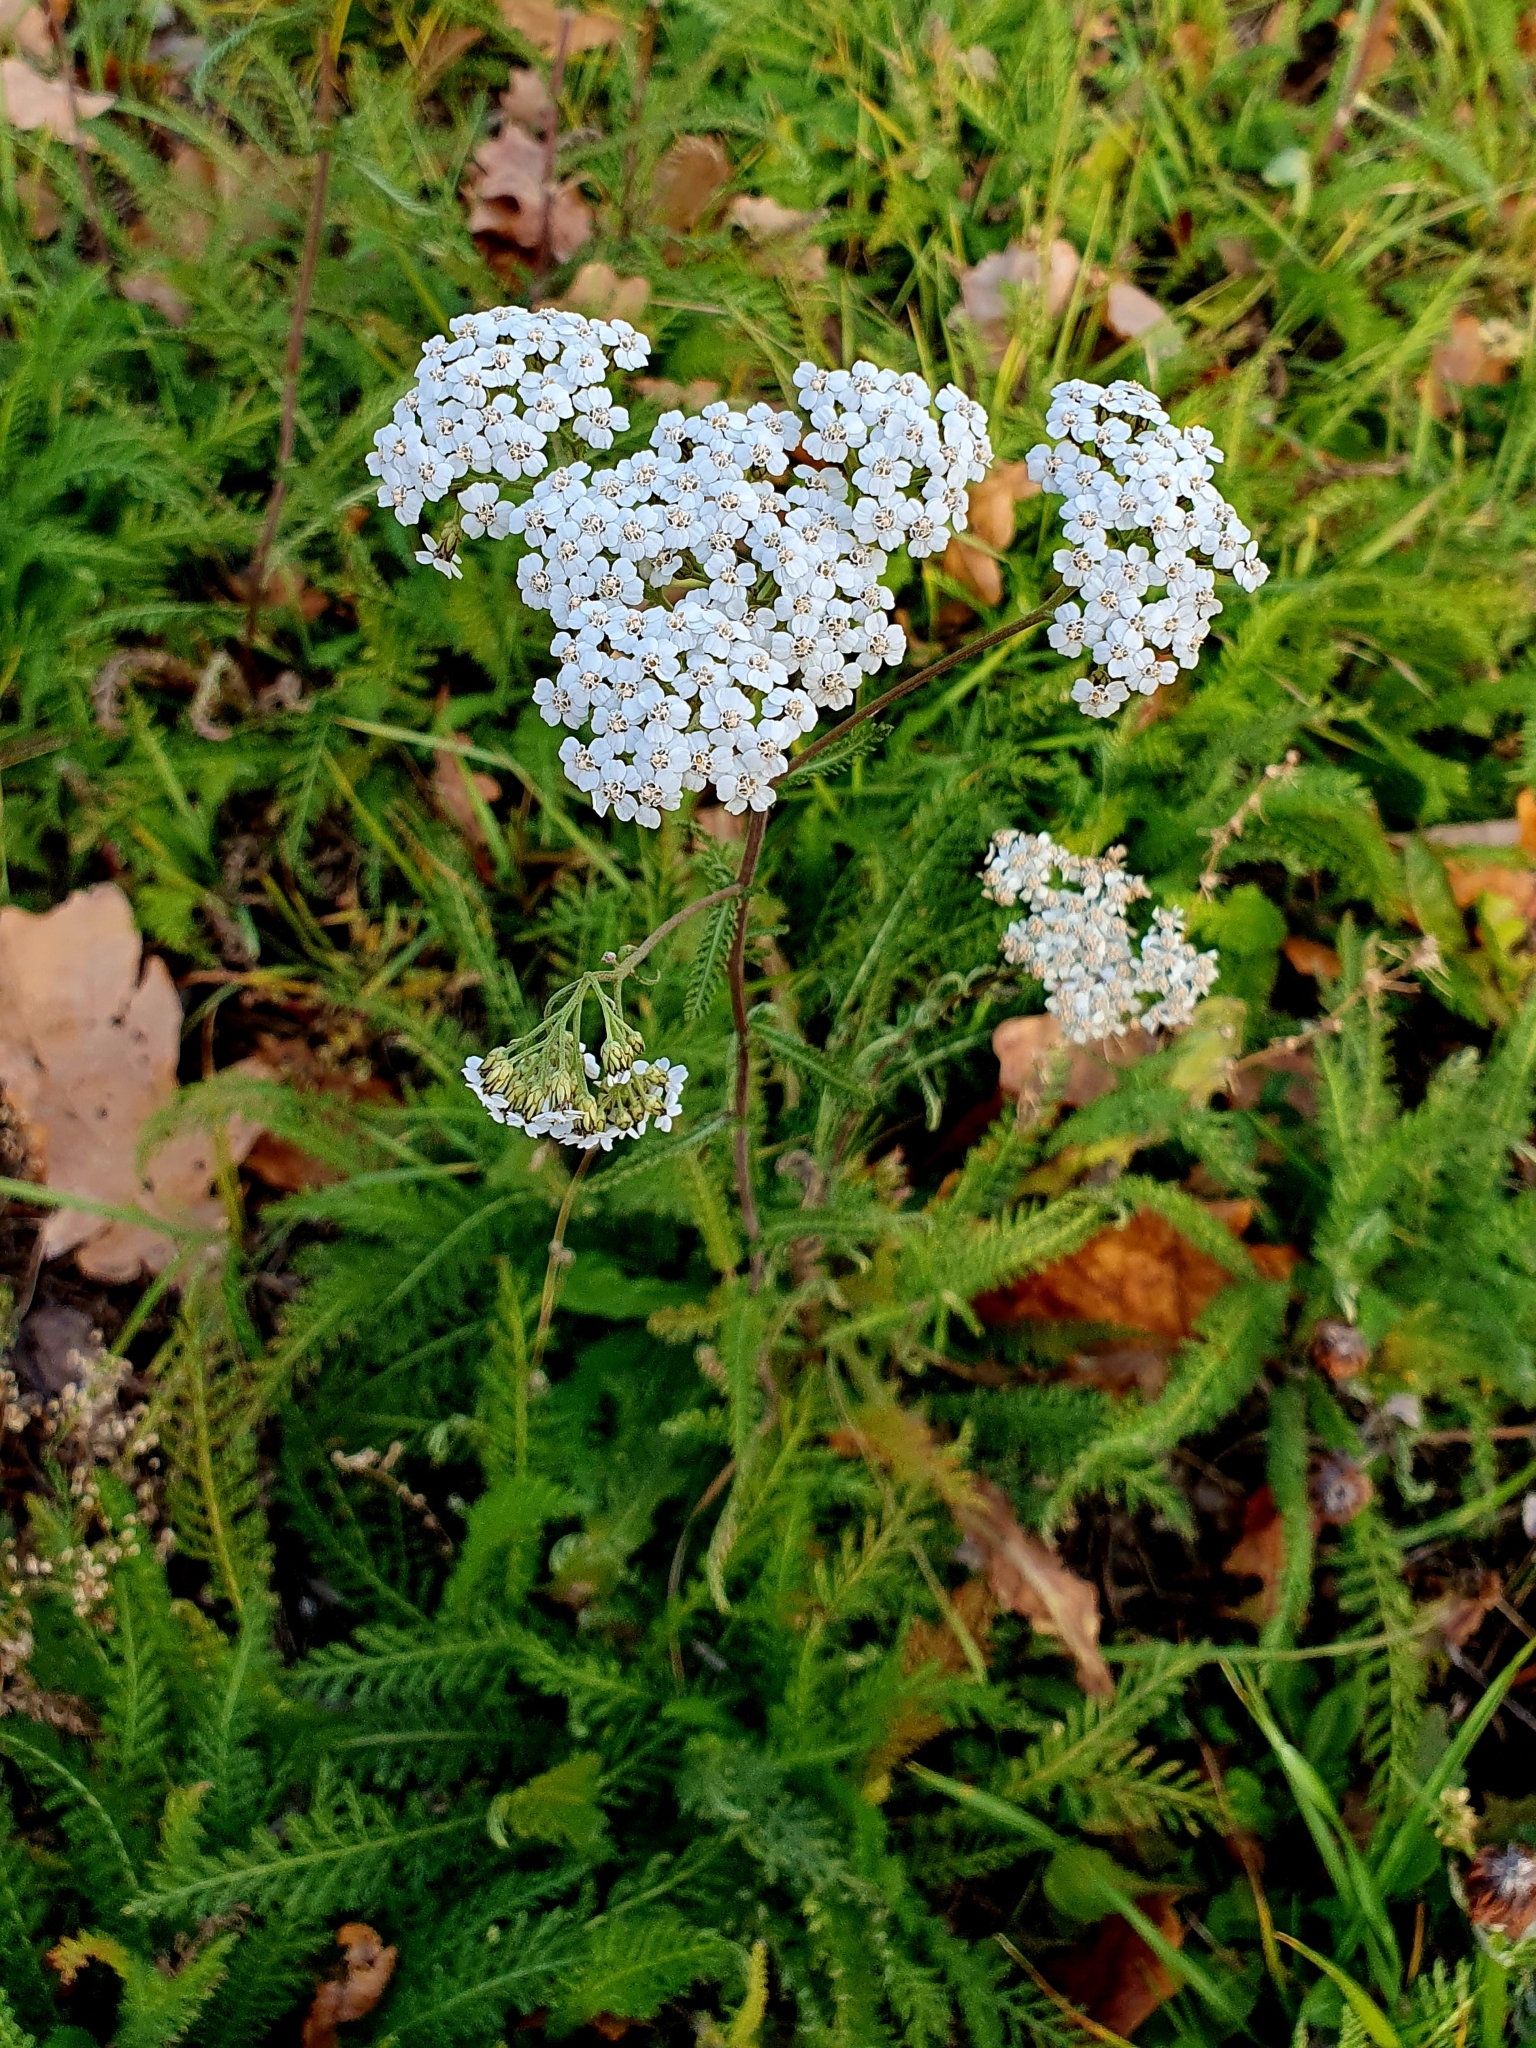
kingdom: Plantae
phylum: Tracheophyta
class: Magnoliopsida
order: Asterales
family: Asteraceae
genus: Achillea
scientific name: Achillea millefolium
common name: Yarrow
